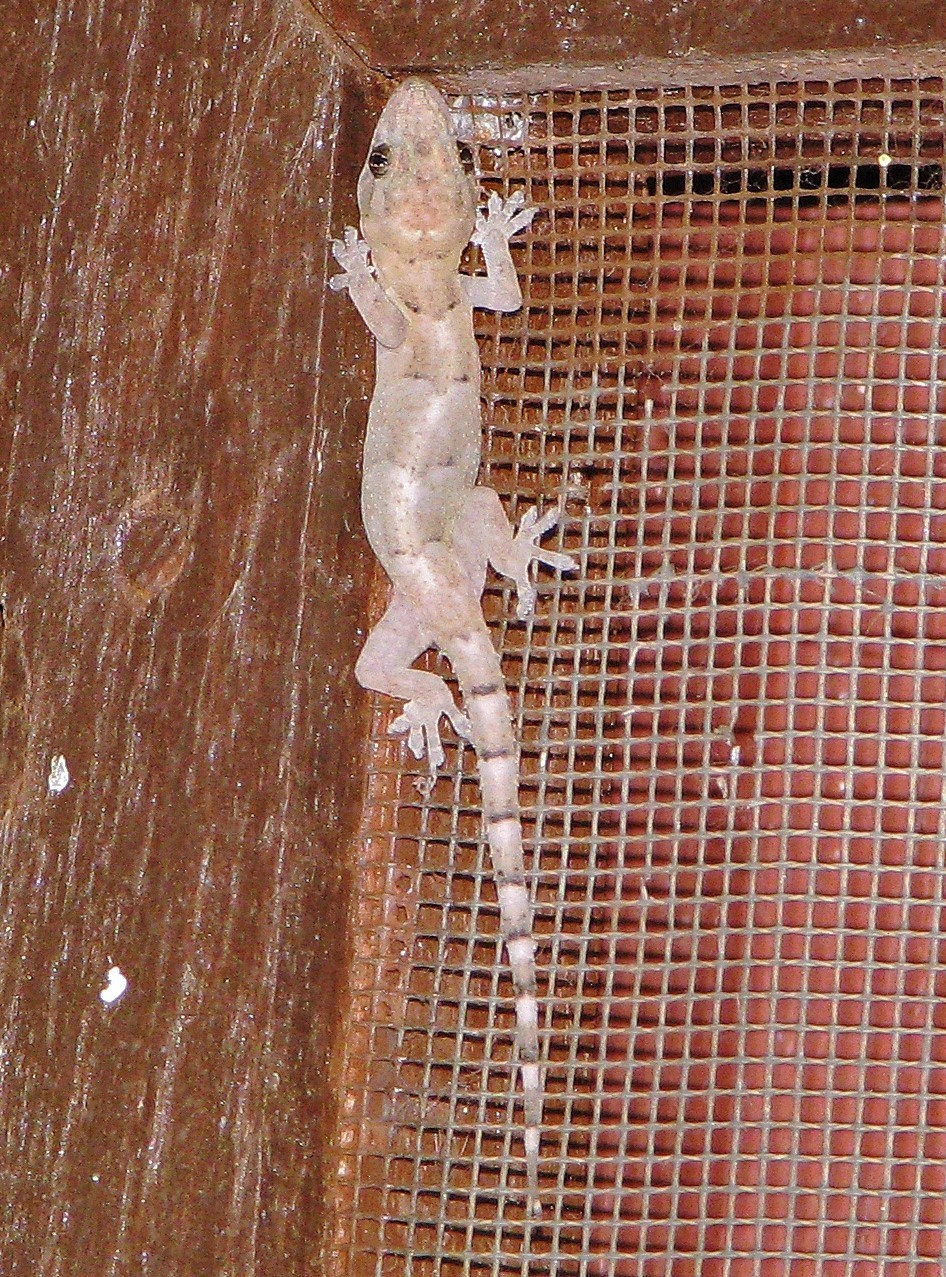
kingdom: Animalia
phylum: Chordata
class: Squamata
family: Gekkonidae
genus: Hemidactylus
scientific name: Hemidactylus mabouia
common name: House gecko
